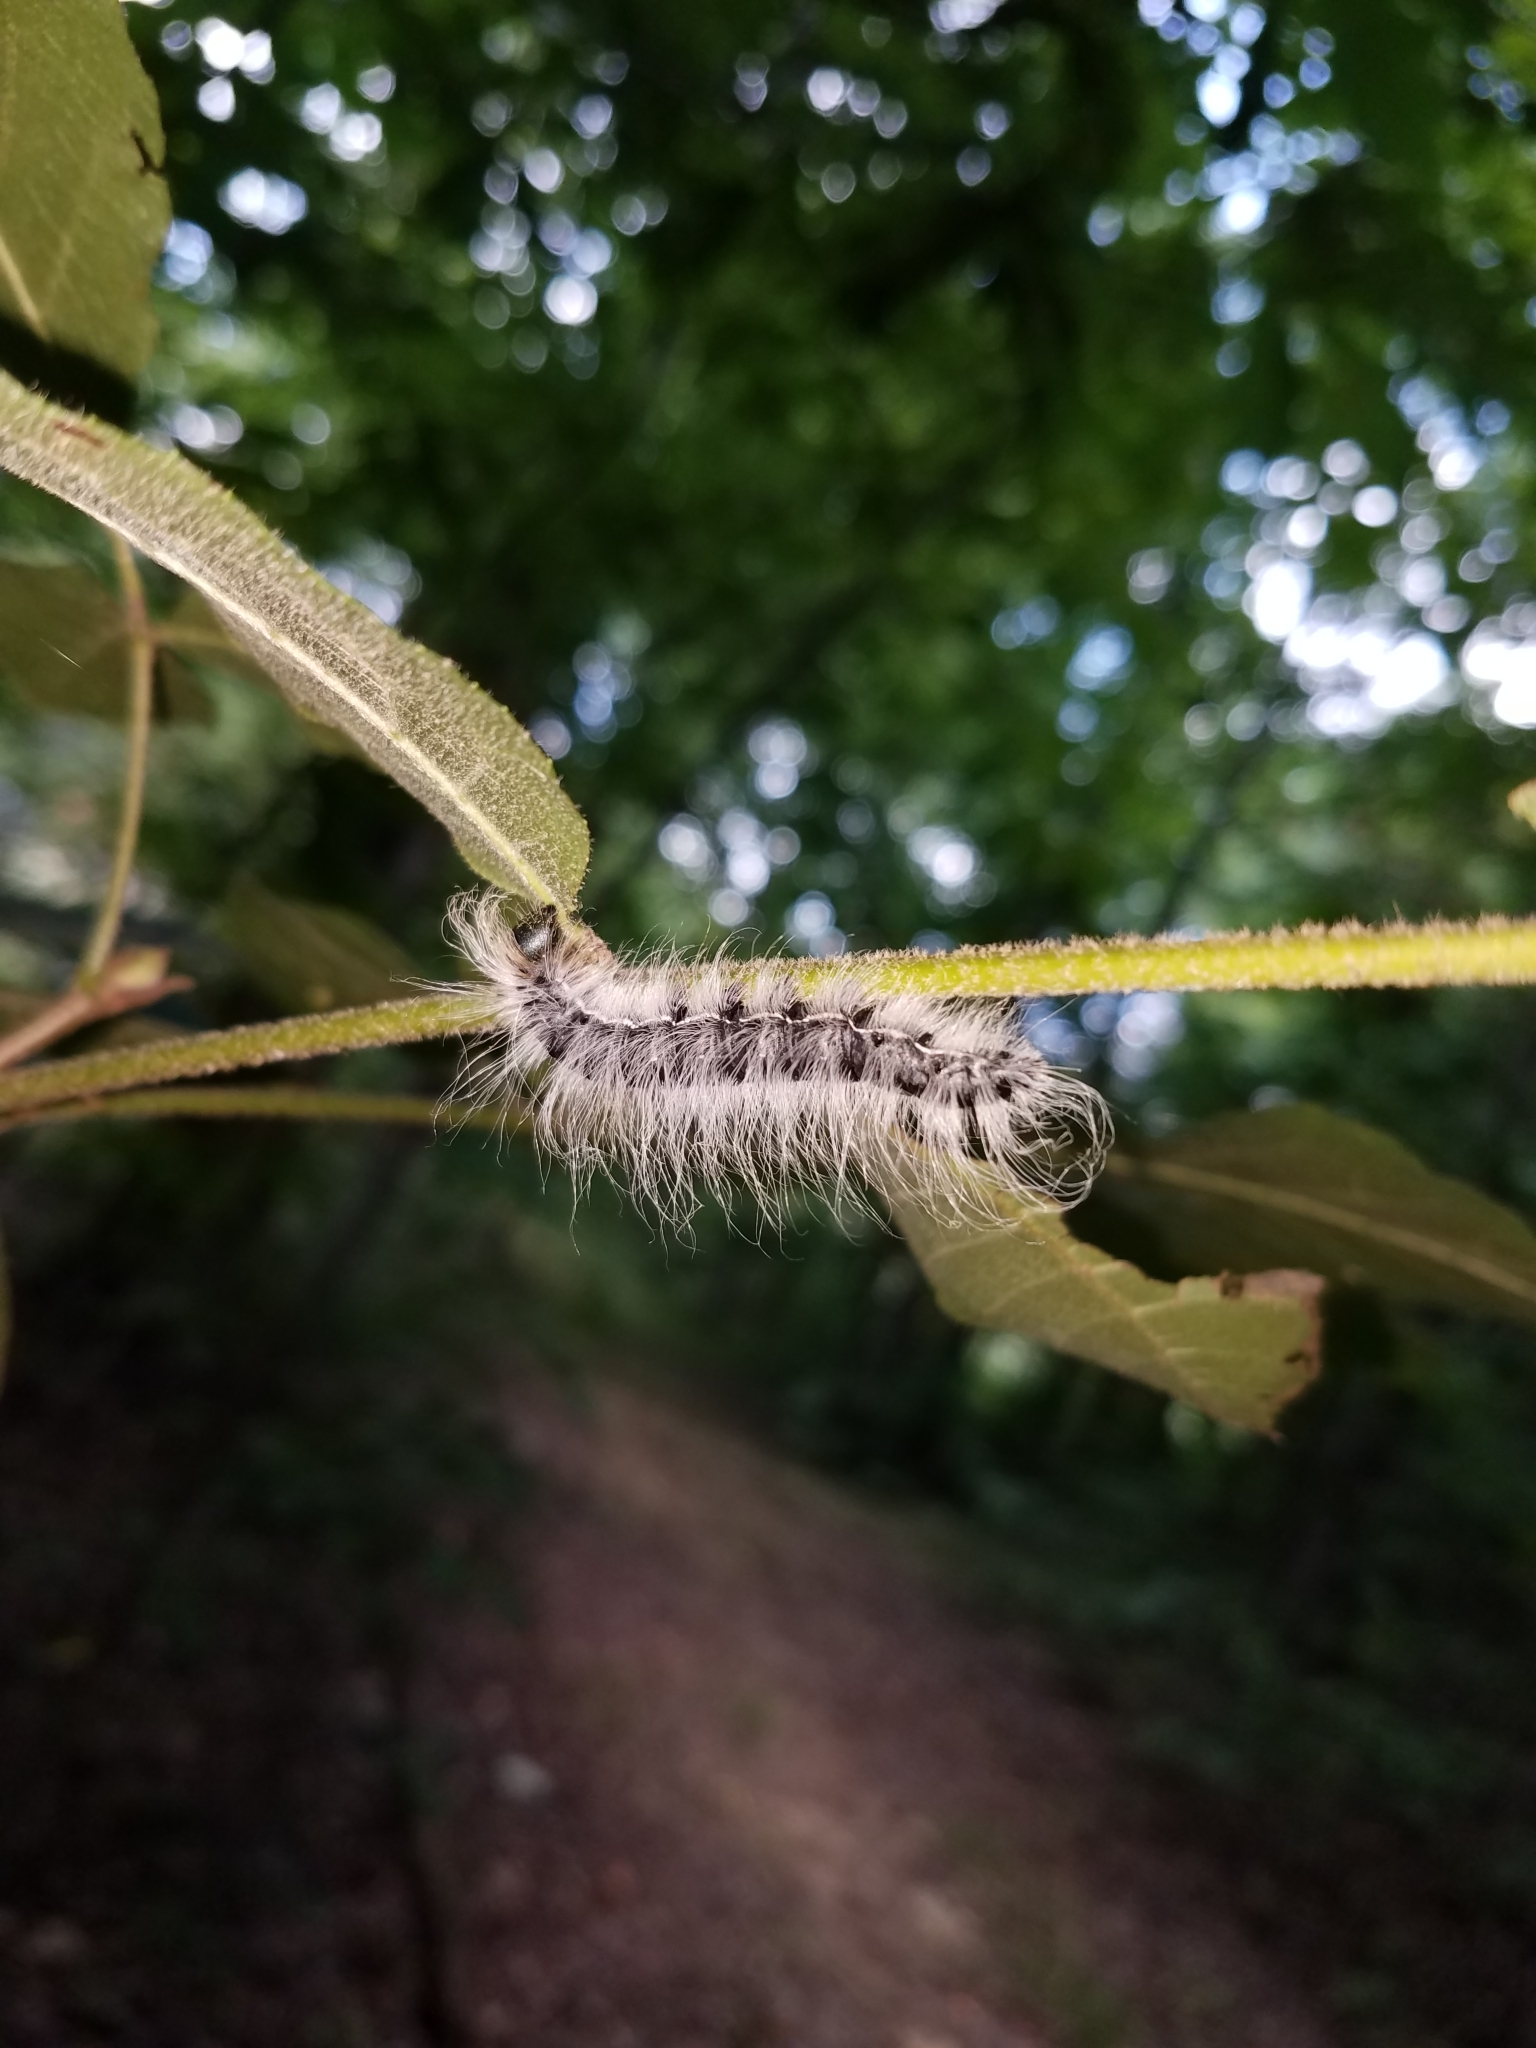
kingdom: Animalia
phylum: Arthropoda
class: Insecta
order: Lepidoptera
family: Notodontidae
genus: Datana
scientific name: Datana integerrima
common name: Walnut caterpillar
